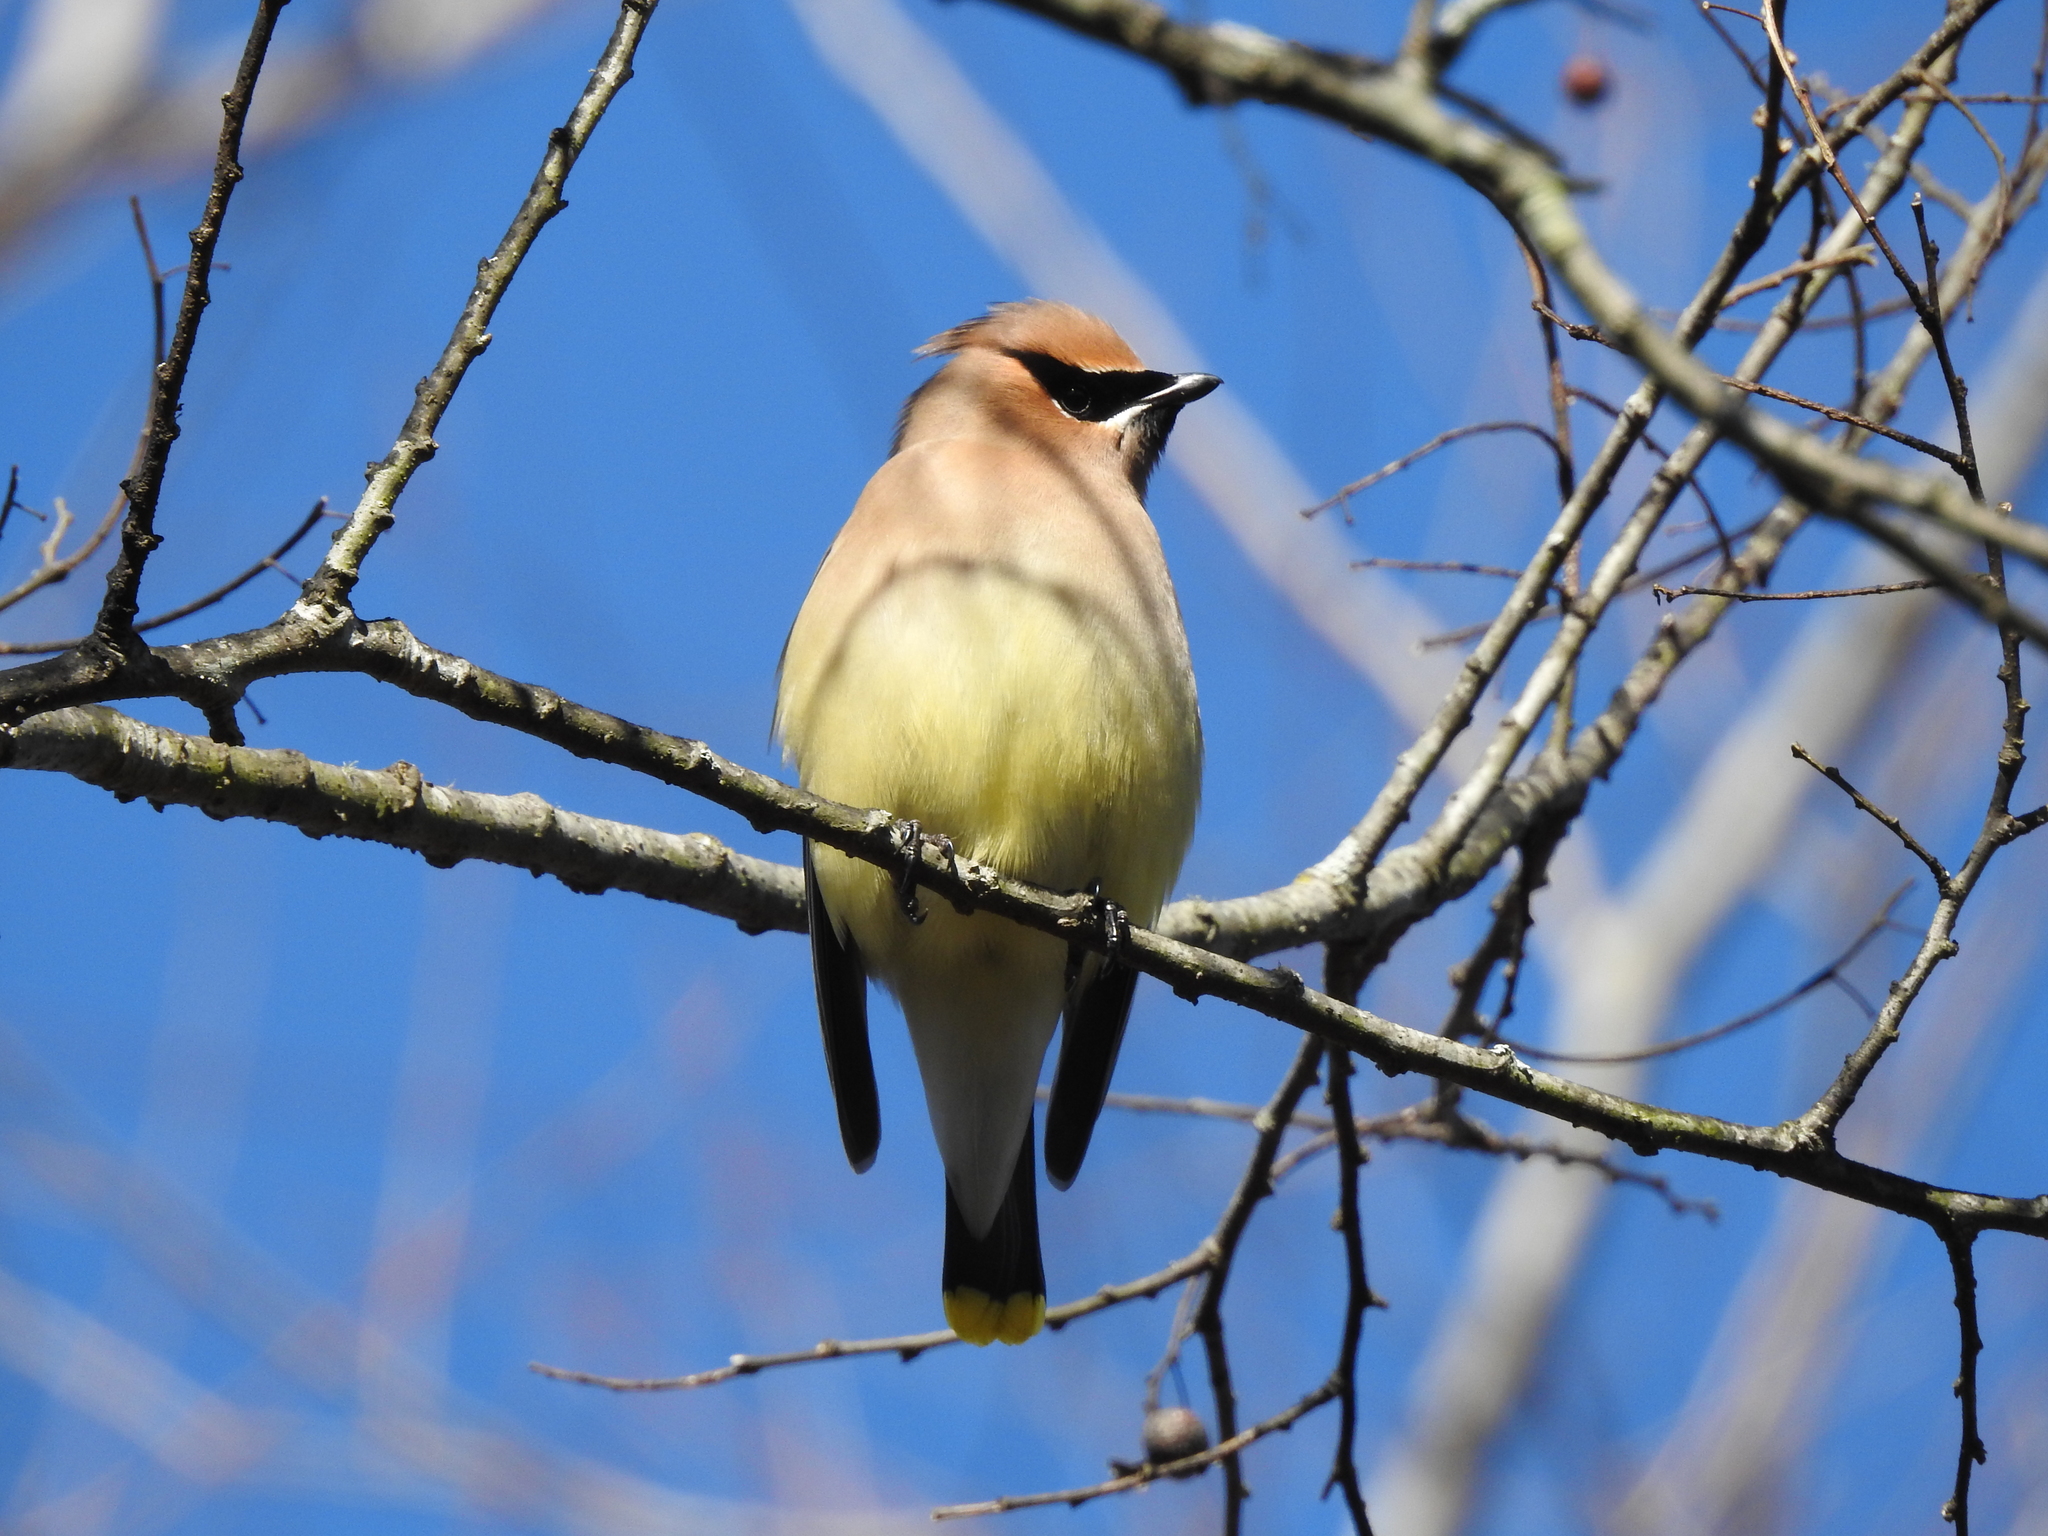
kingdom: Animalia
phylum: Chordata
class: Aves
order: Passeriformes
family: Bombycillidae
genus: Bombycilla
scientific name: Bombycilla cedrorum
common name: Cedar waxwing
